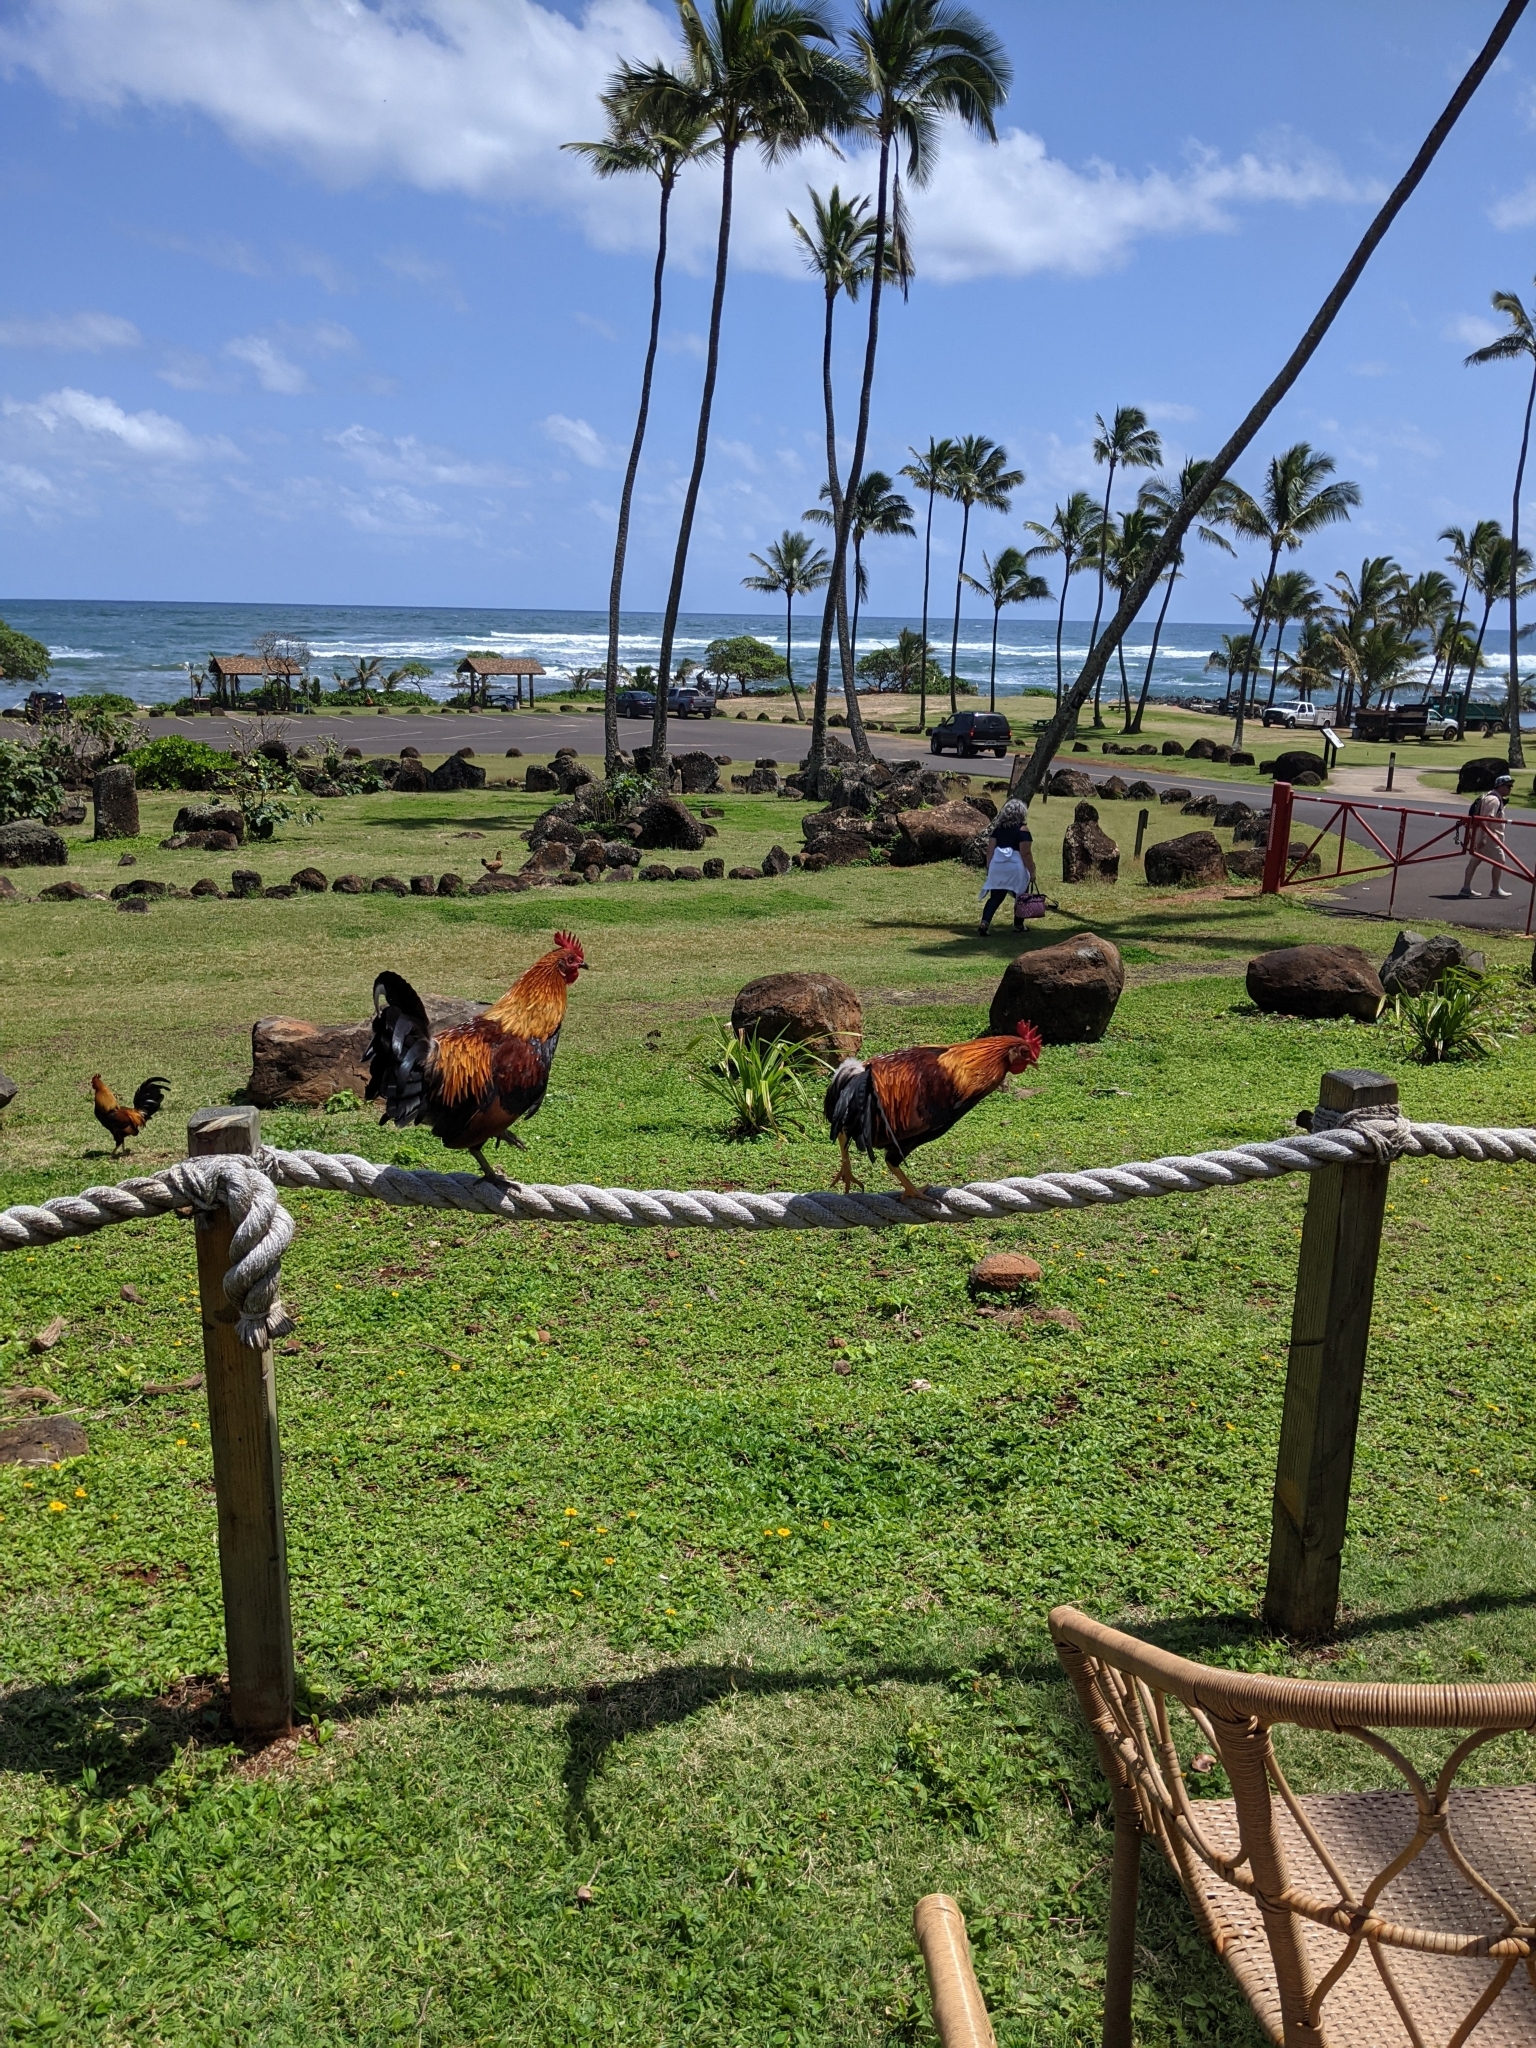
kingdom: Animalia
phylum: Chordata
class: Aves
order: Galliformes
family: Phasianidae
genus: Gallus
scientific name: Gallus gallus
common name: Red junglefowl
